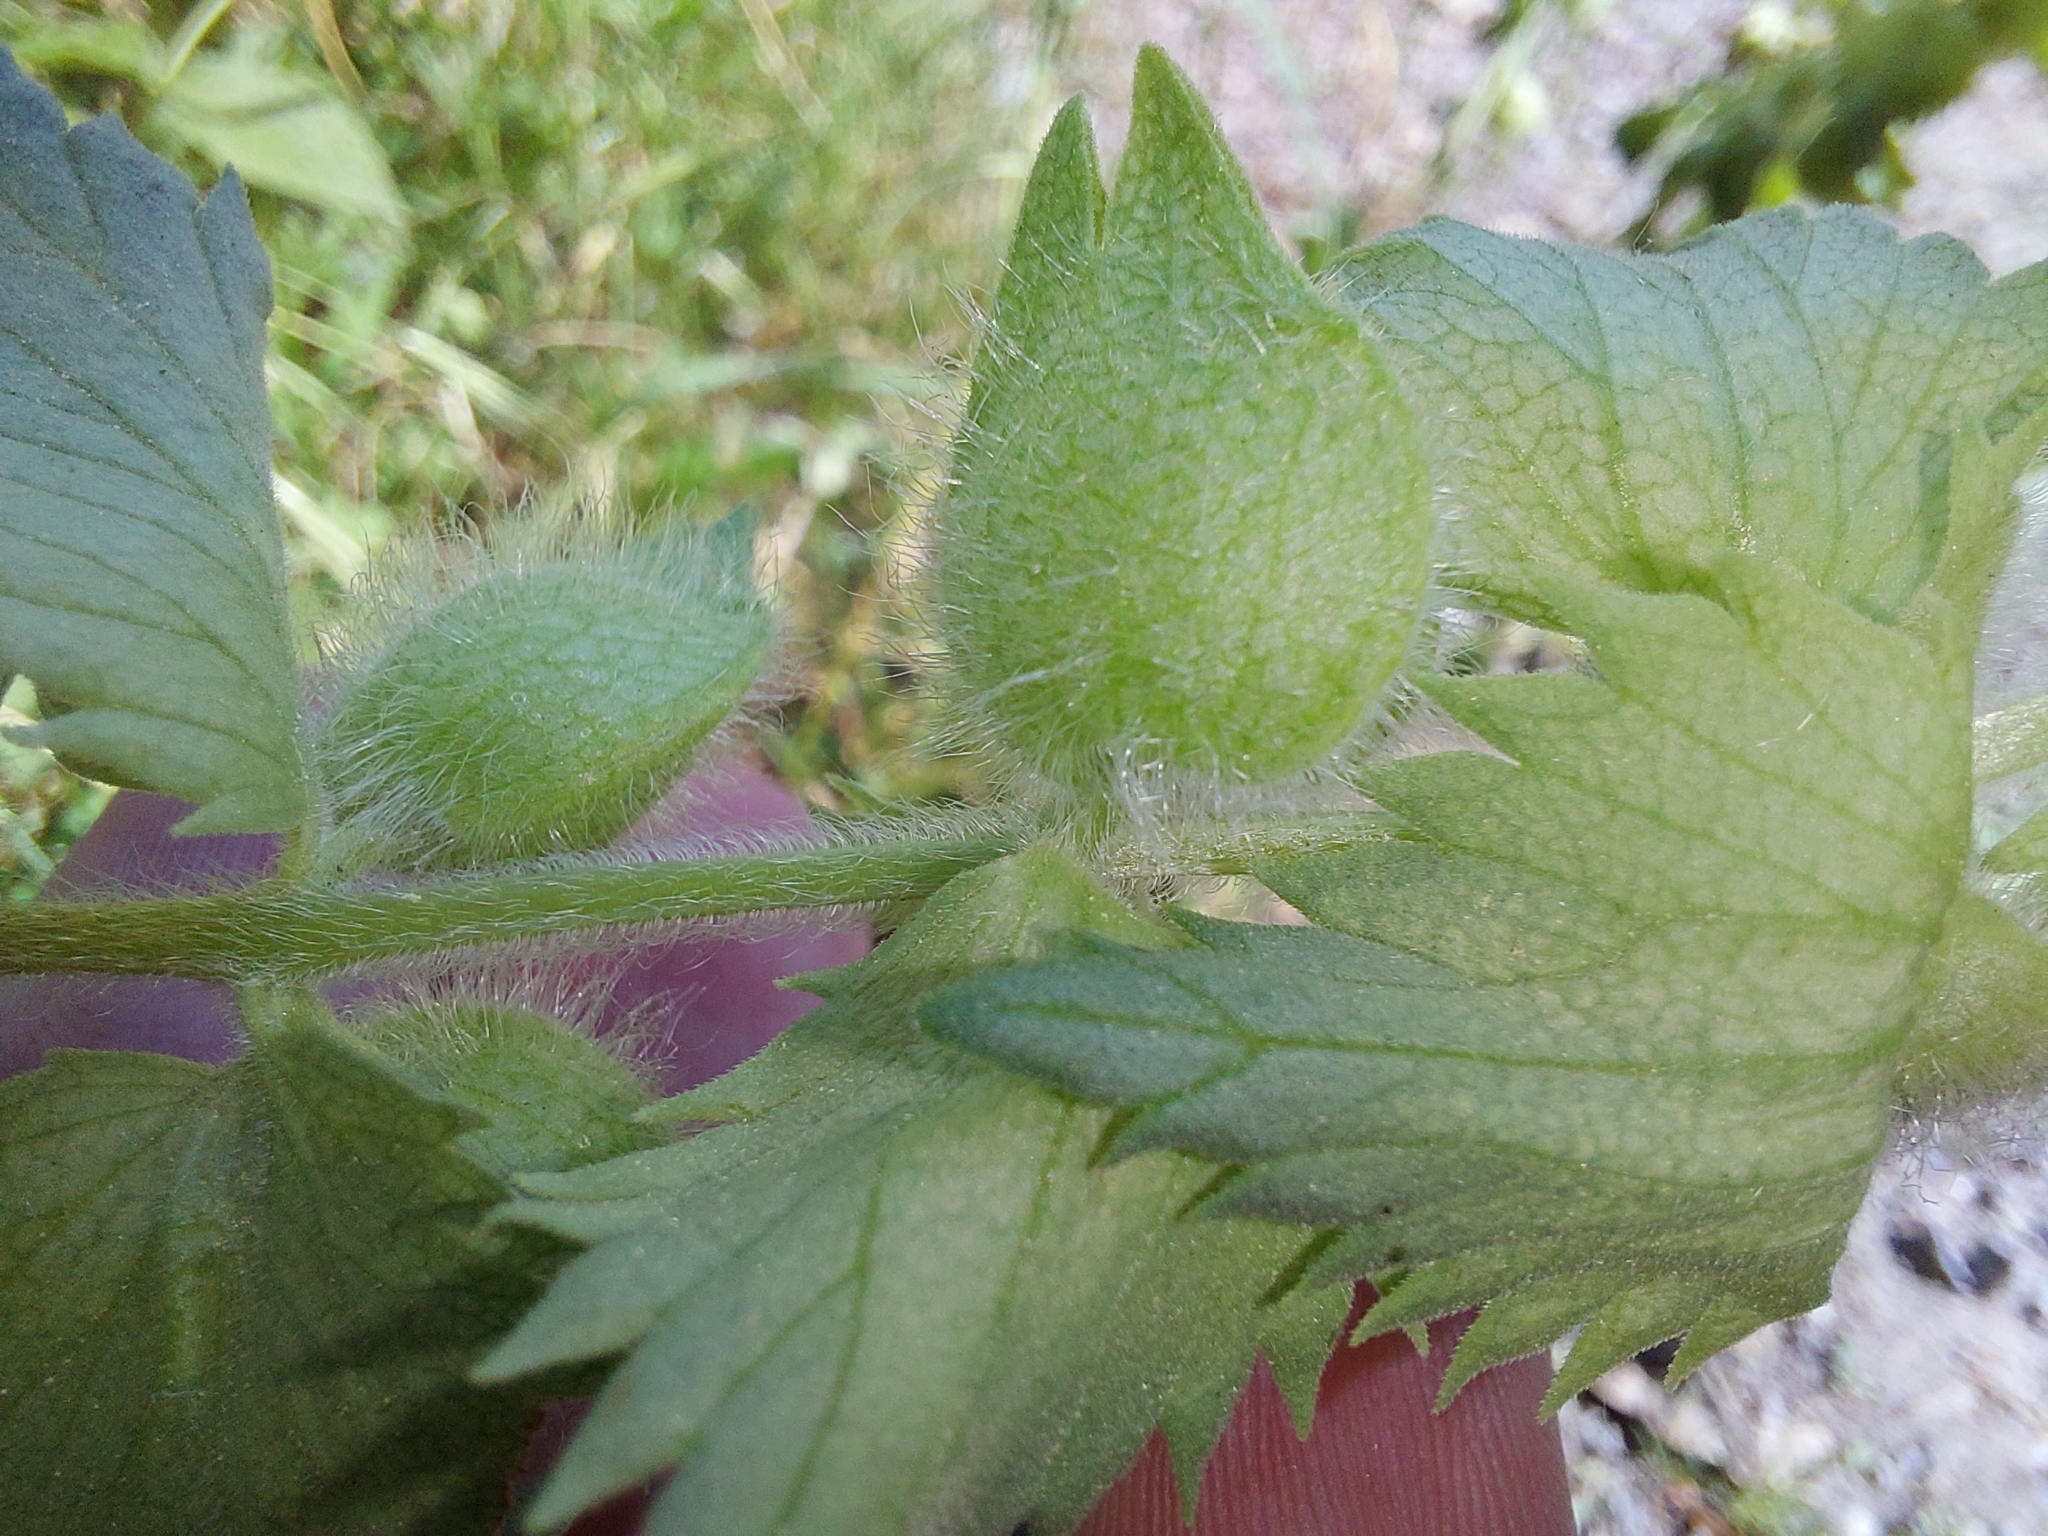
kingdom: Plantae
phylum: Tracheophyta
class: Magnoliopsida
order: Lamiales
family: Orobanchaceae
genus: Rhinanthus
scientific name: Rhinanthus alectorolophus
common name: Greater yellow-rattle
